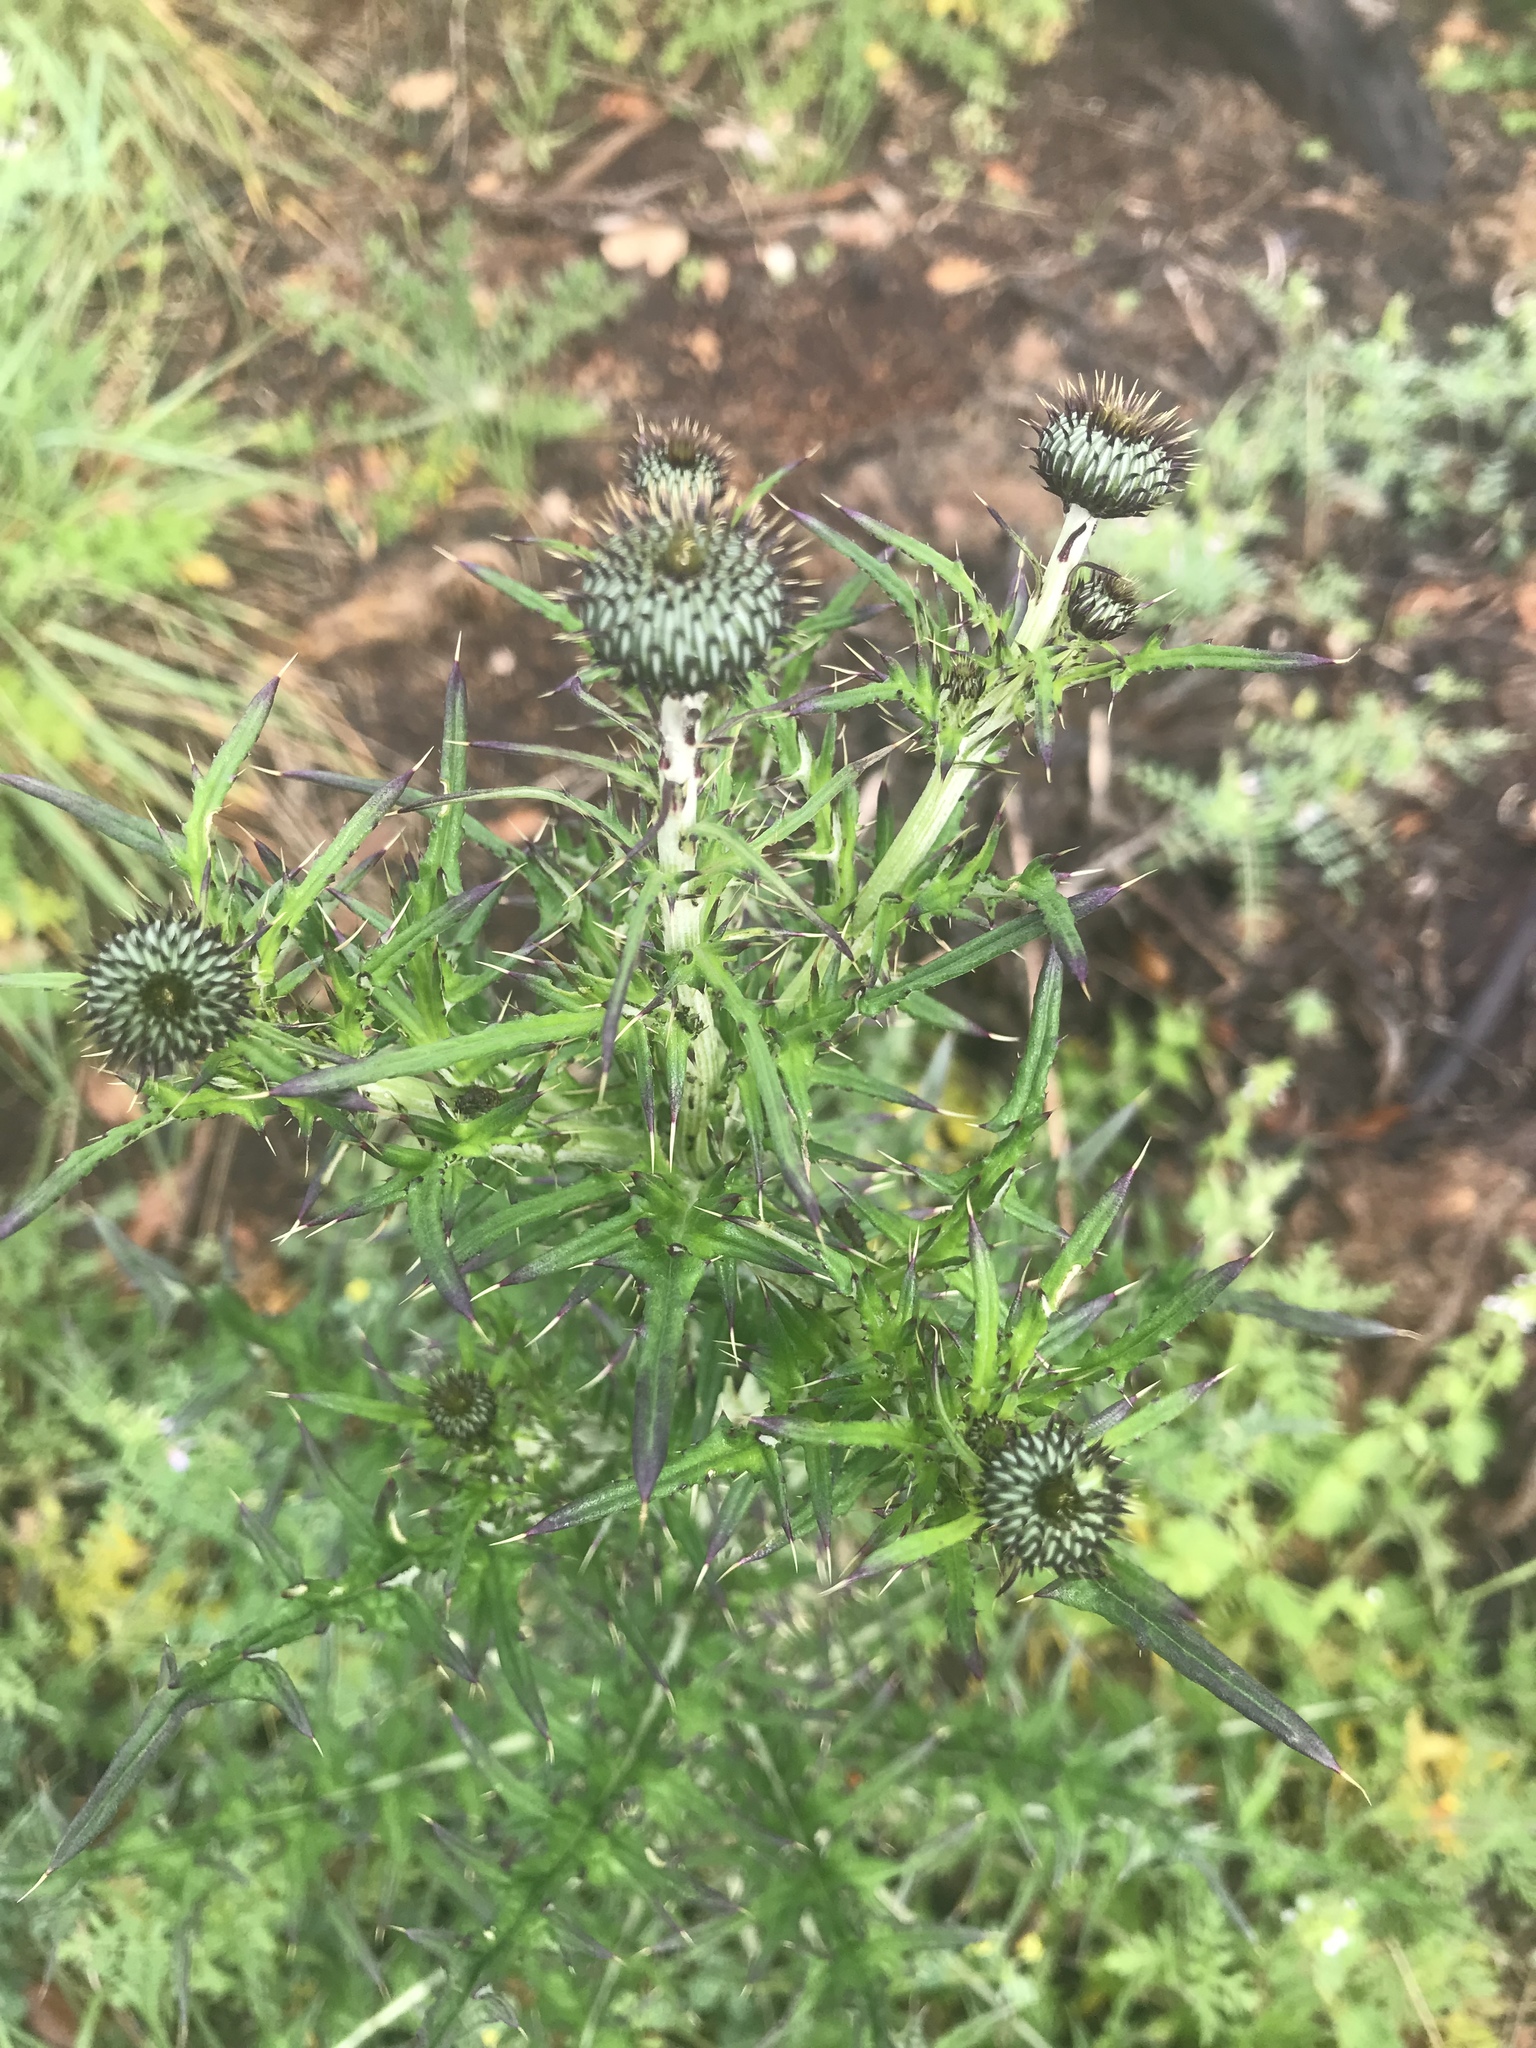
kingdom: Plantae
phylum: Tracheophyta
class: Magnoliopsida
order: Asterales
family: Asteraceae
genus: Cirsium
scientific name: Cirsium texanum
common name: Texas purple thistle
